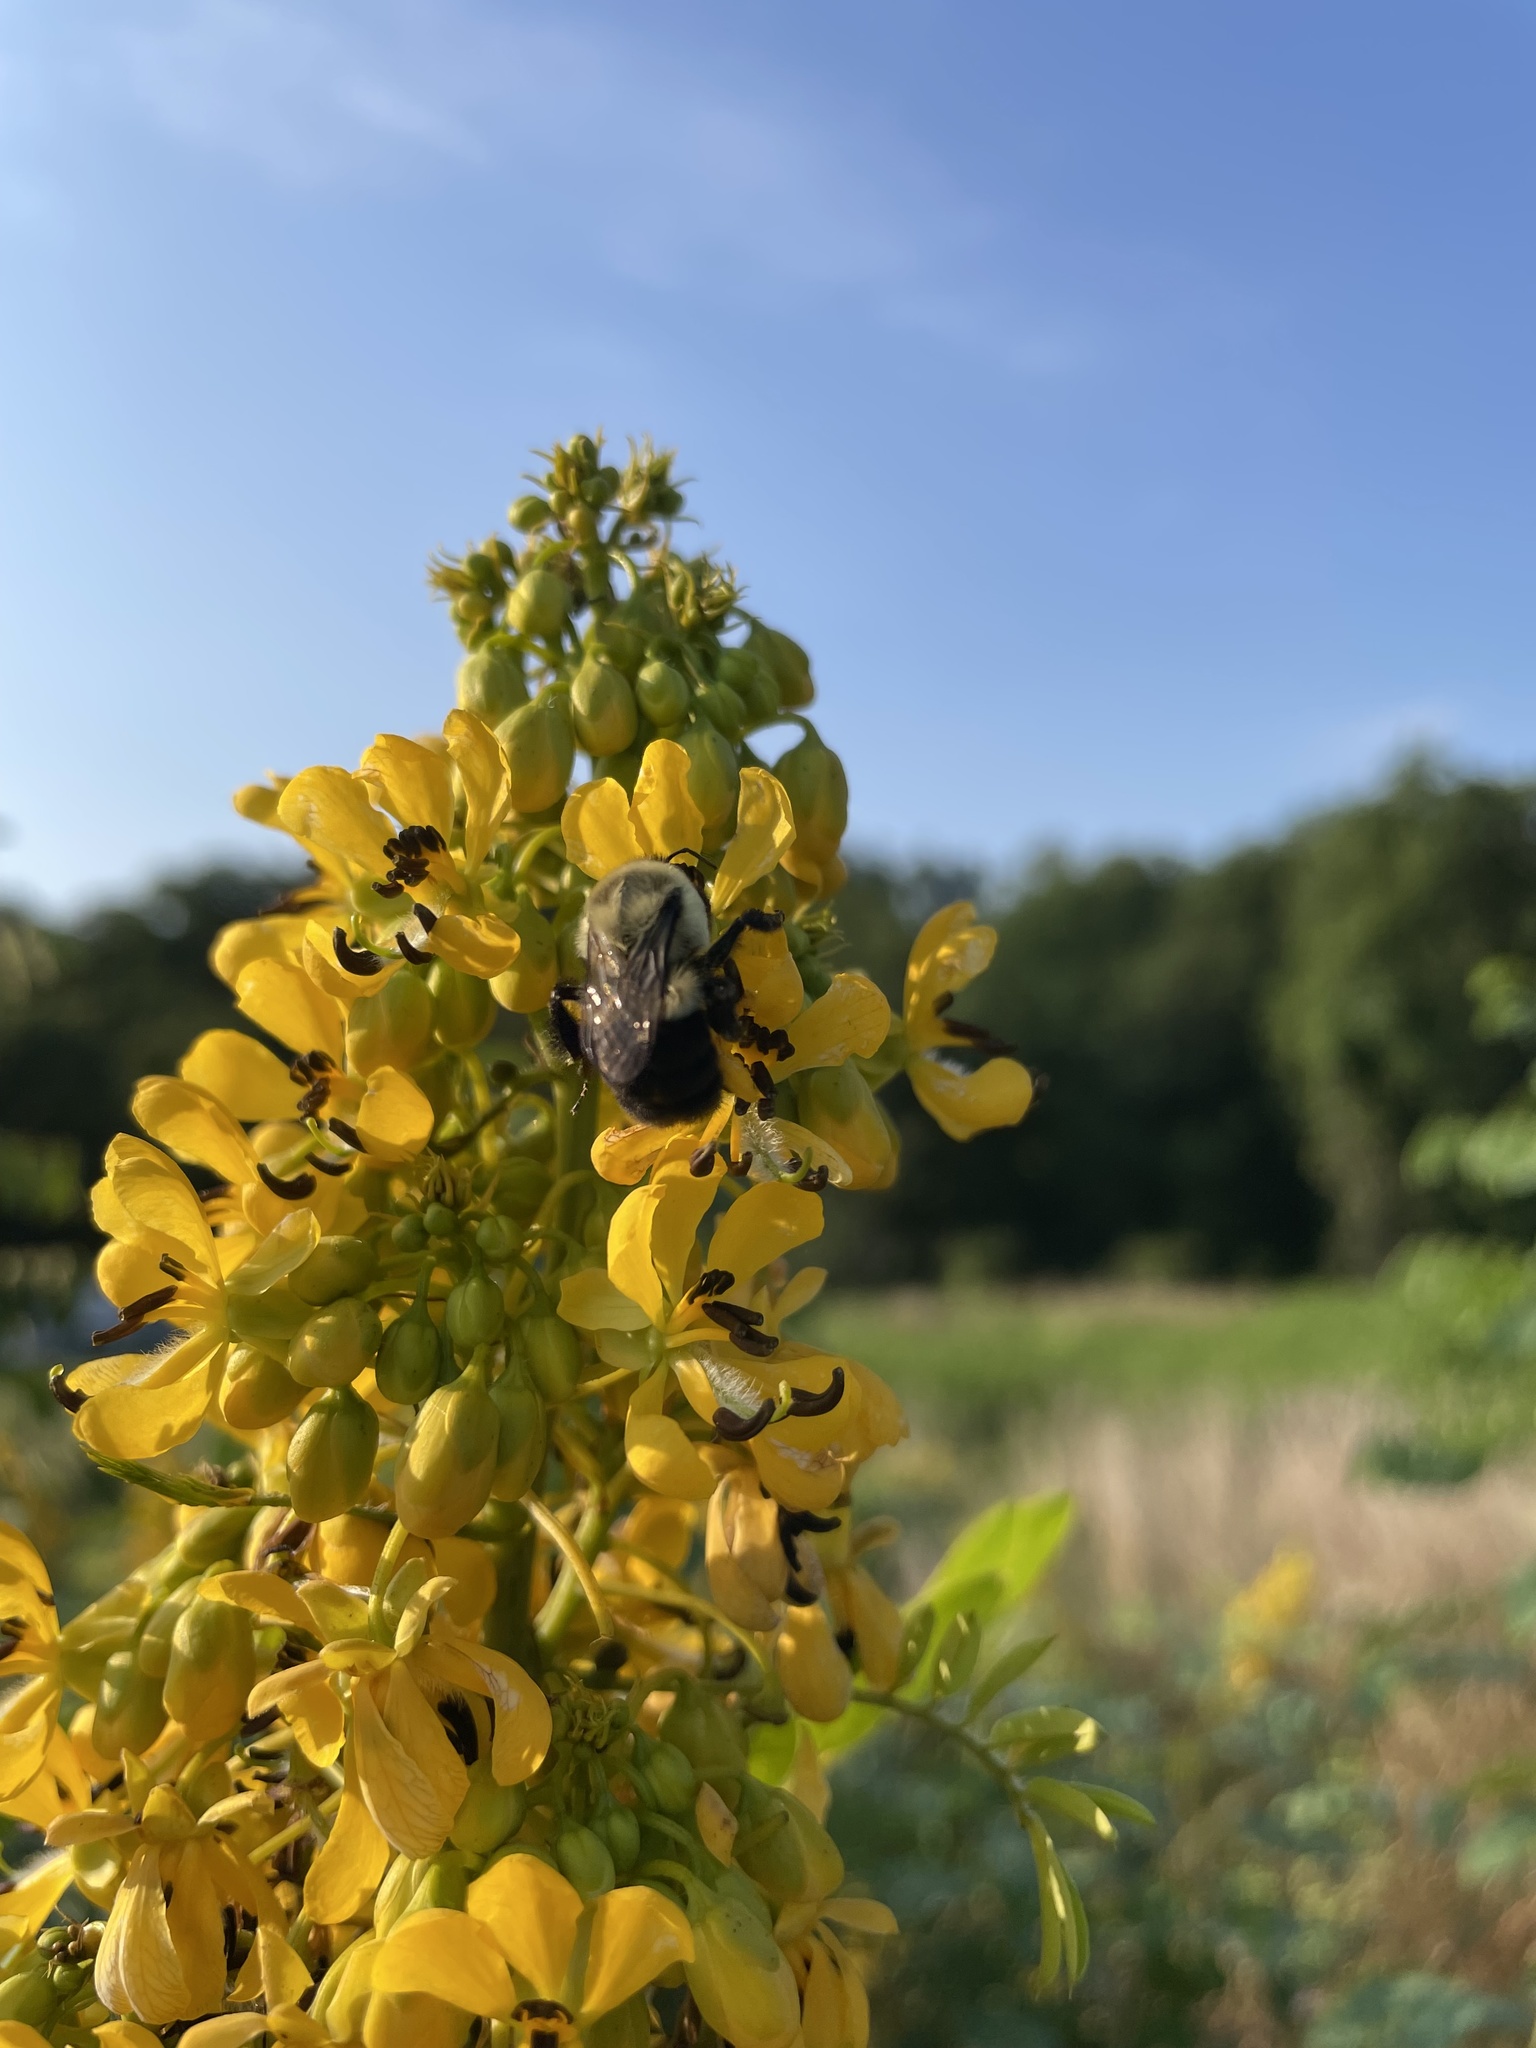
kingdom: Animalia
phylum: Arthropoda
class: Insecta
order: Hymenoptera
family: Apidae
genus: Bombus
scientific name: Bombus impatiens
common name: Common eastern bumble bee
